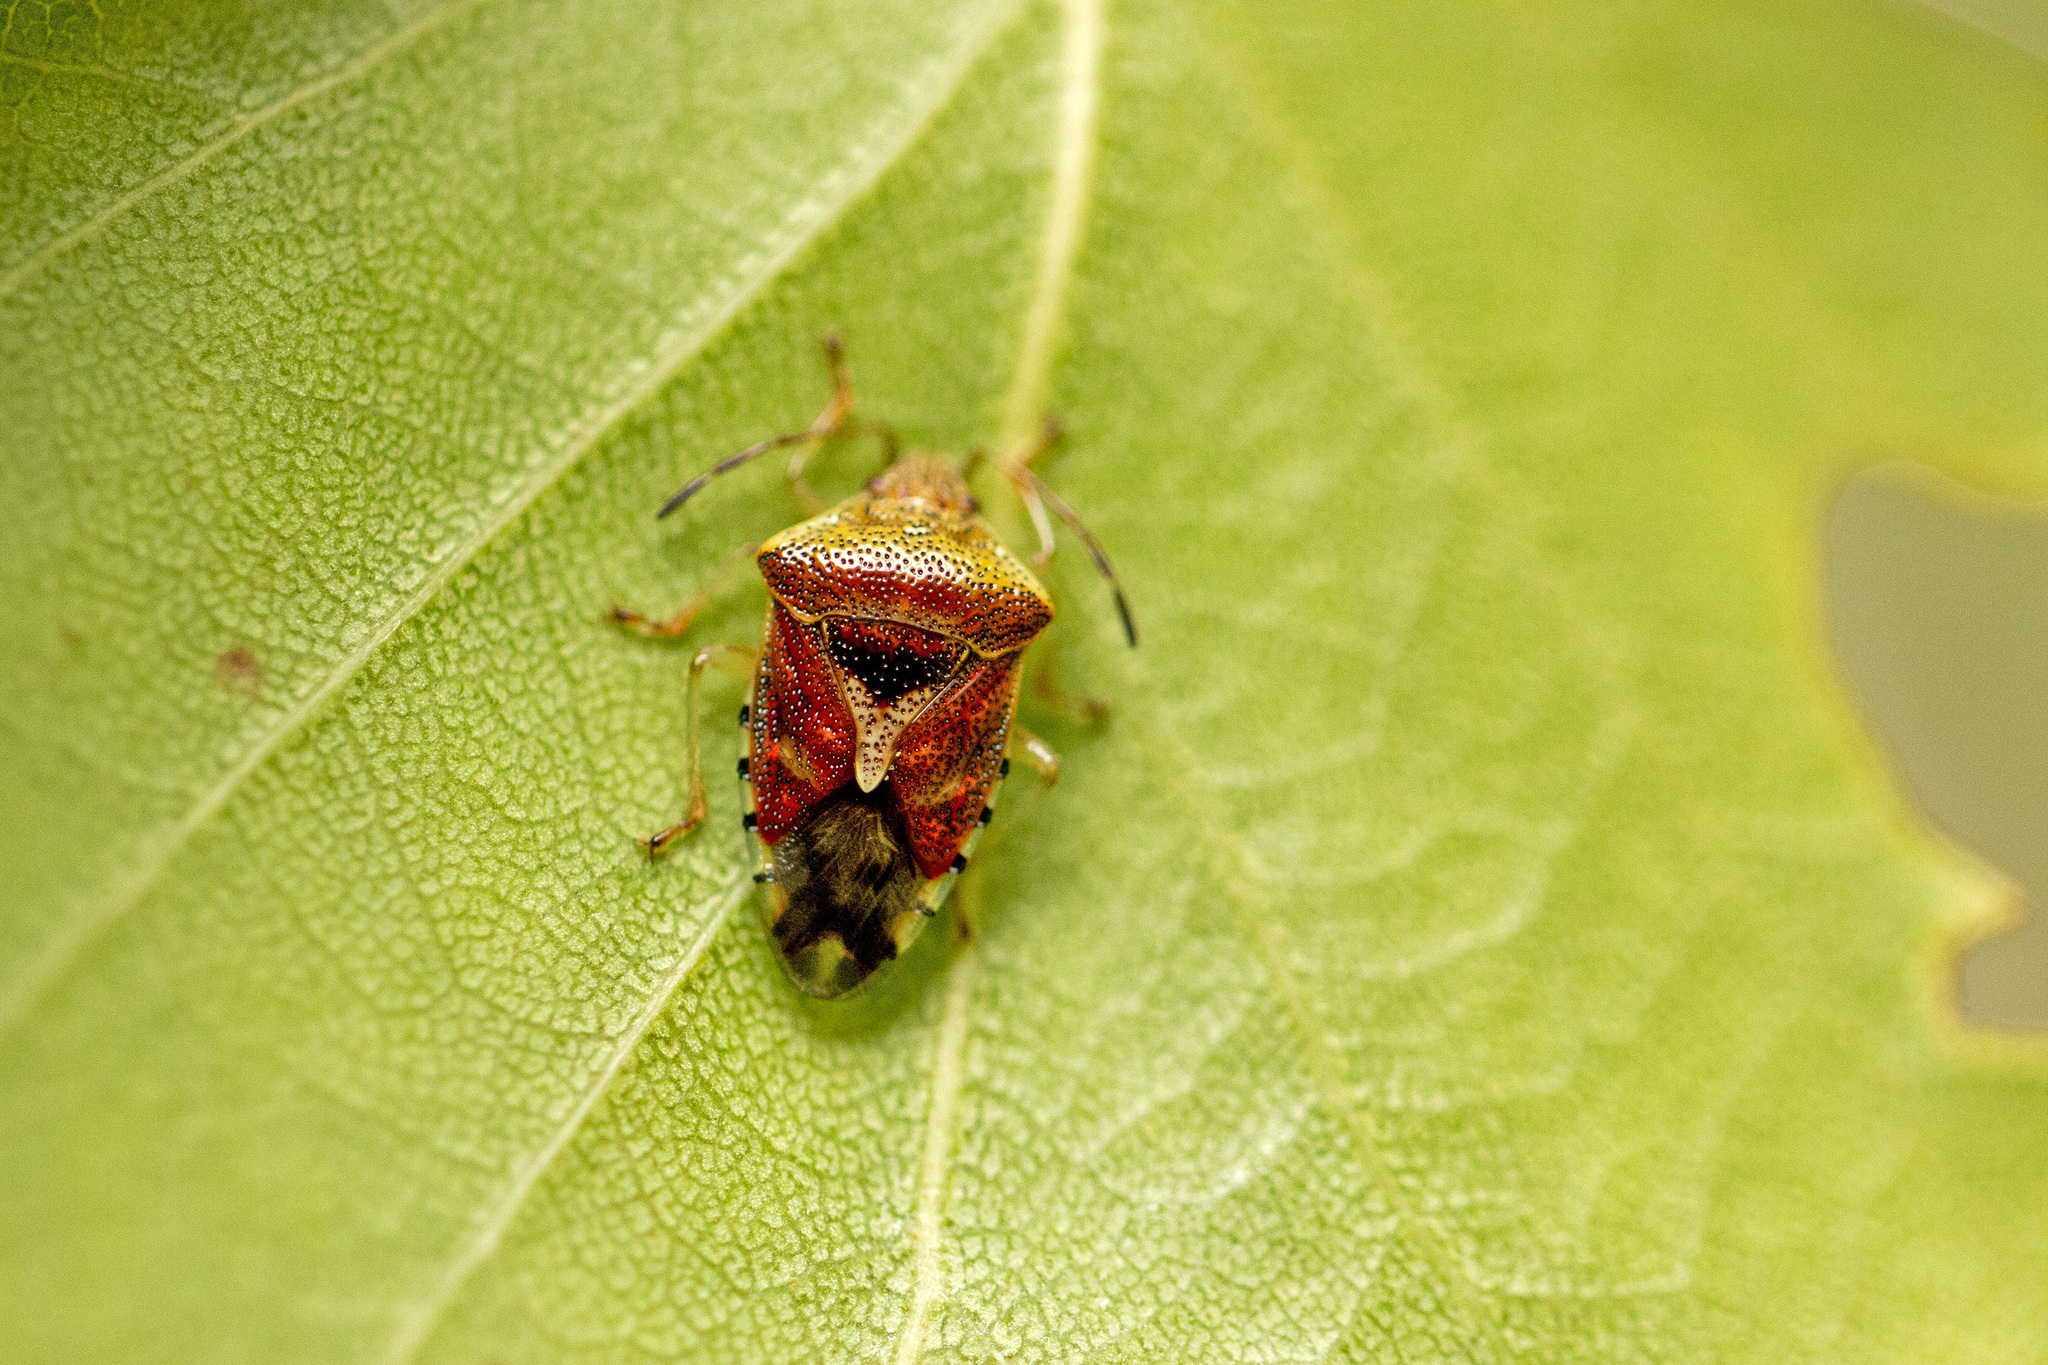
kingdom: Animalia
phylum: Arthropoda
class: Insecta
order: Hemiptera
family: Acanthosomatidae
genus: Elasmucha
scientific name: Elasmucha grisea
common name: Parent bug
